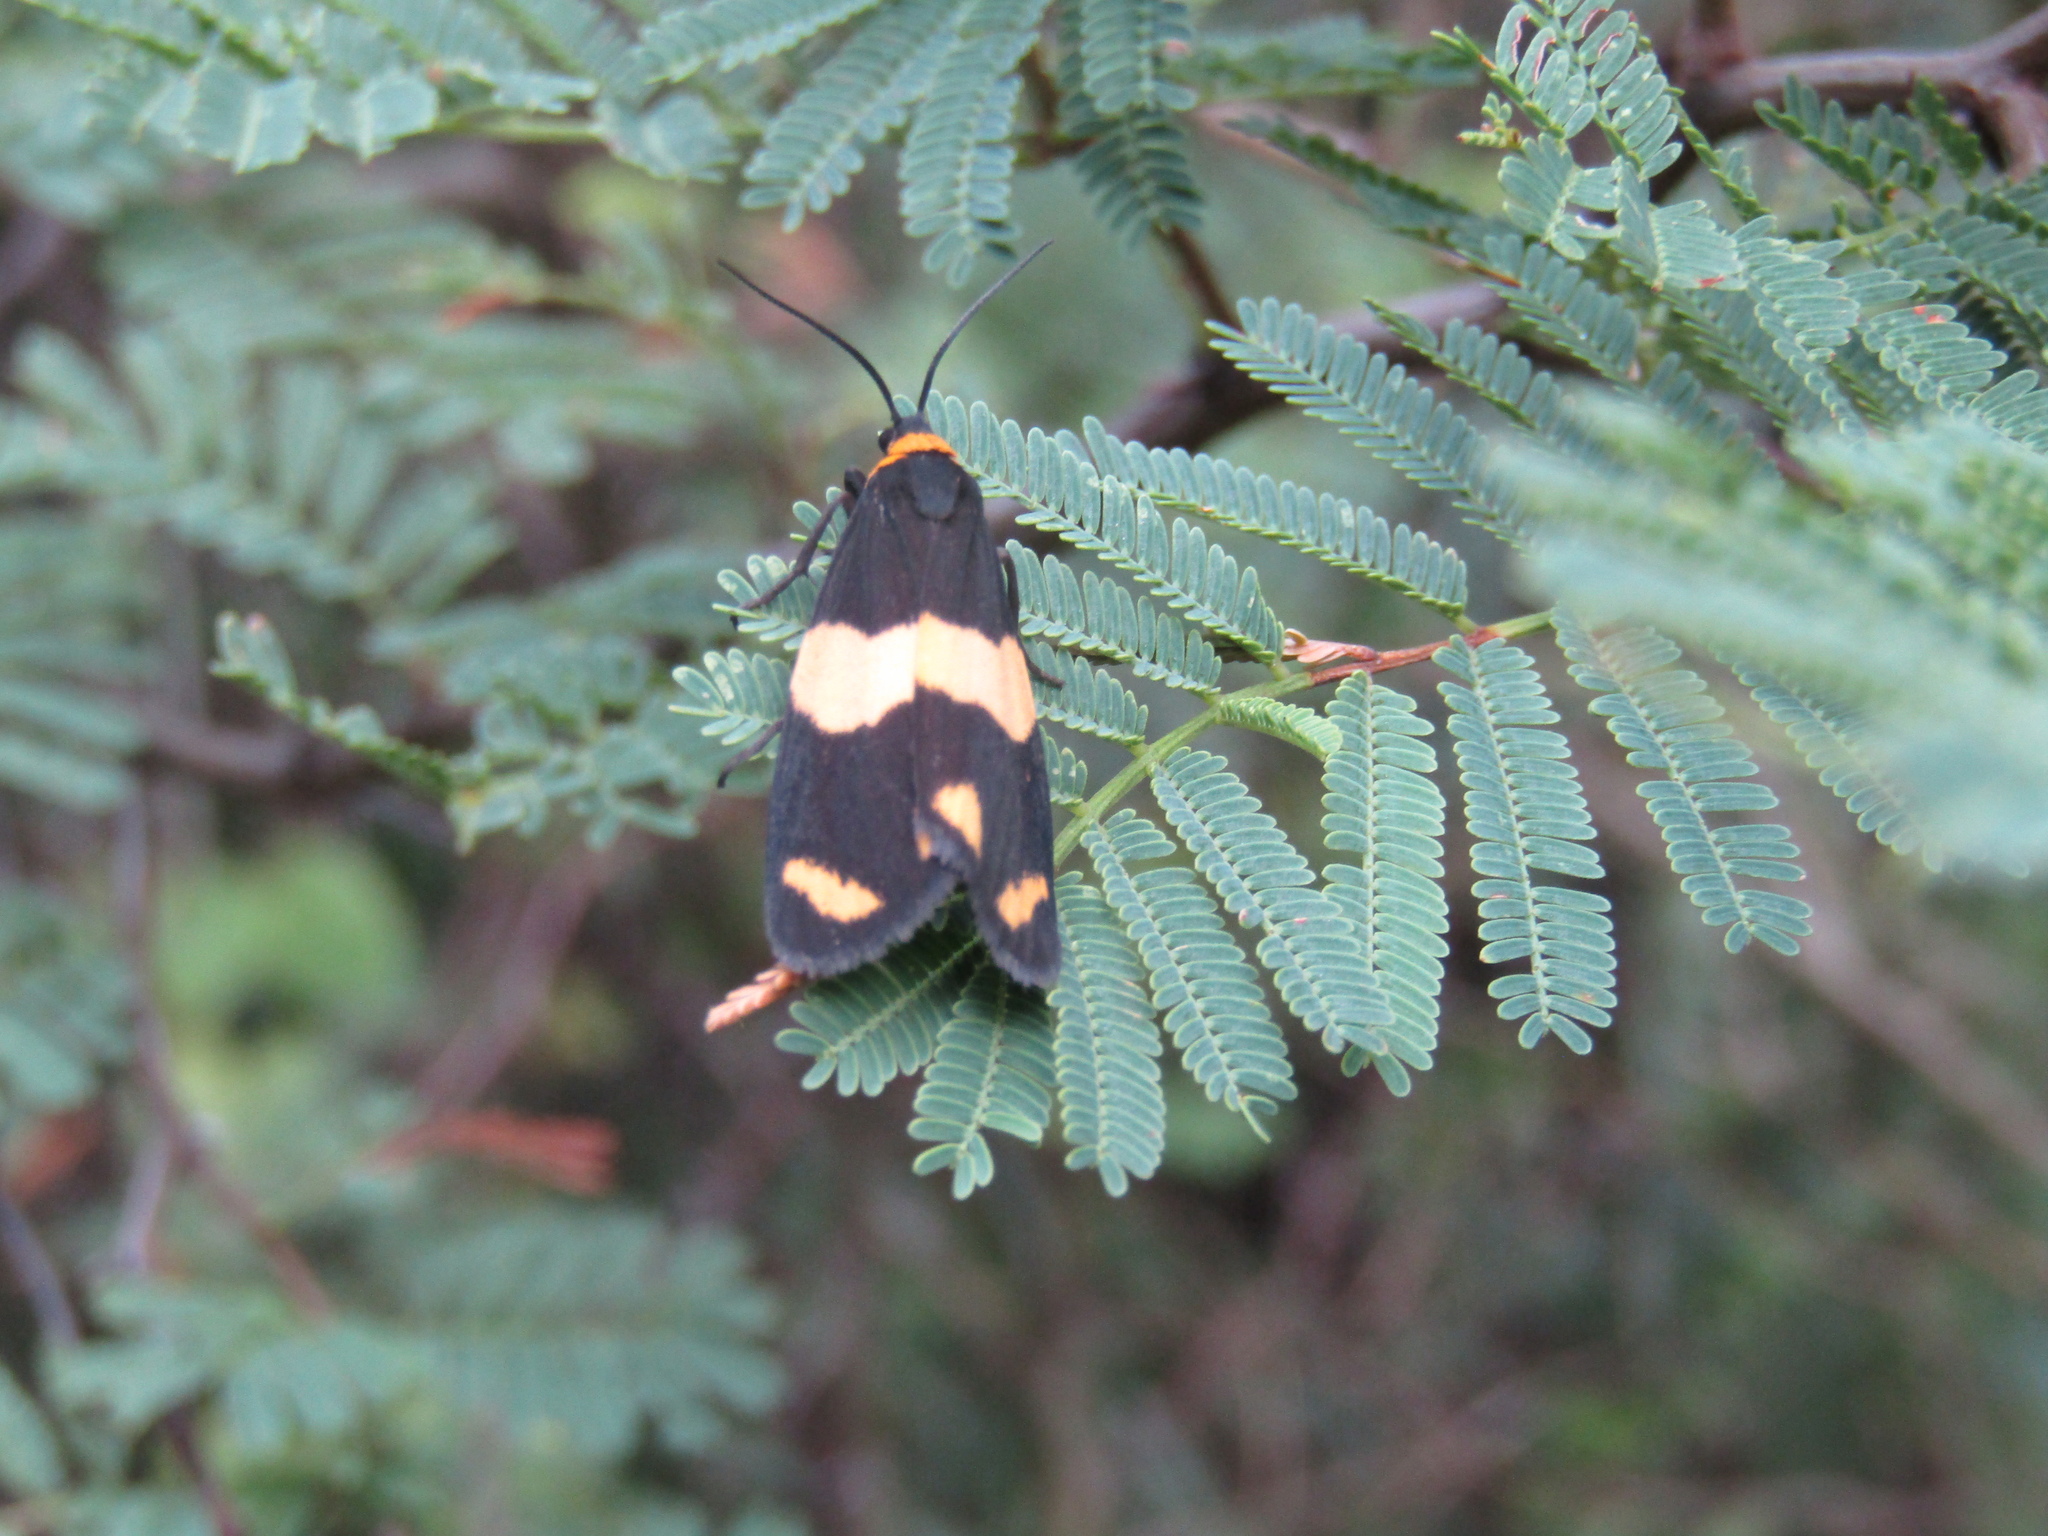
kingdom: Animalia
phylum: Arthropoda
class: Insecta
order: Lepidoptera
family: Erebidae
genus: Eudesmia
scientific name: Eudesmia
